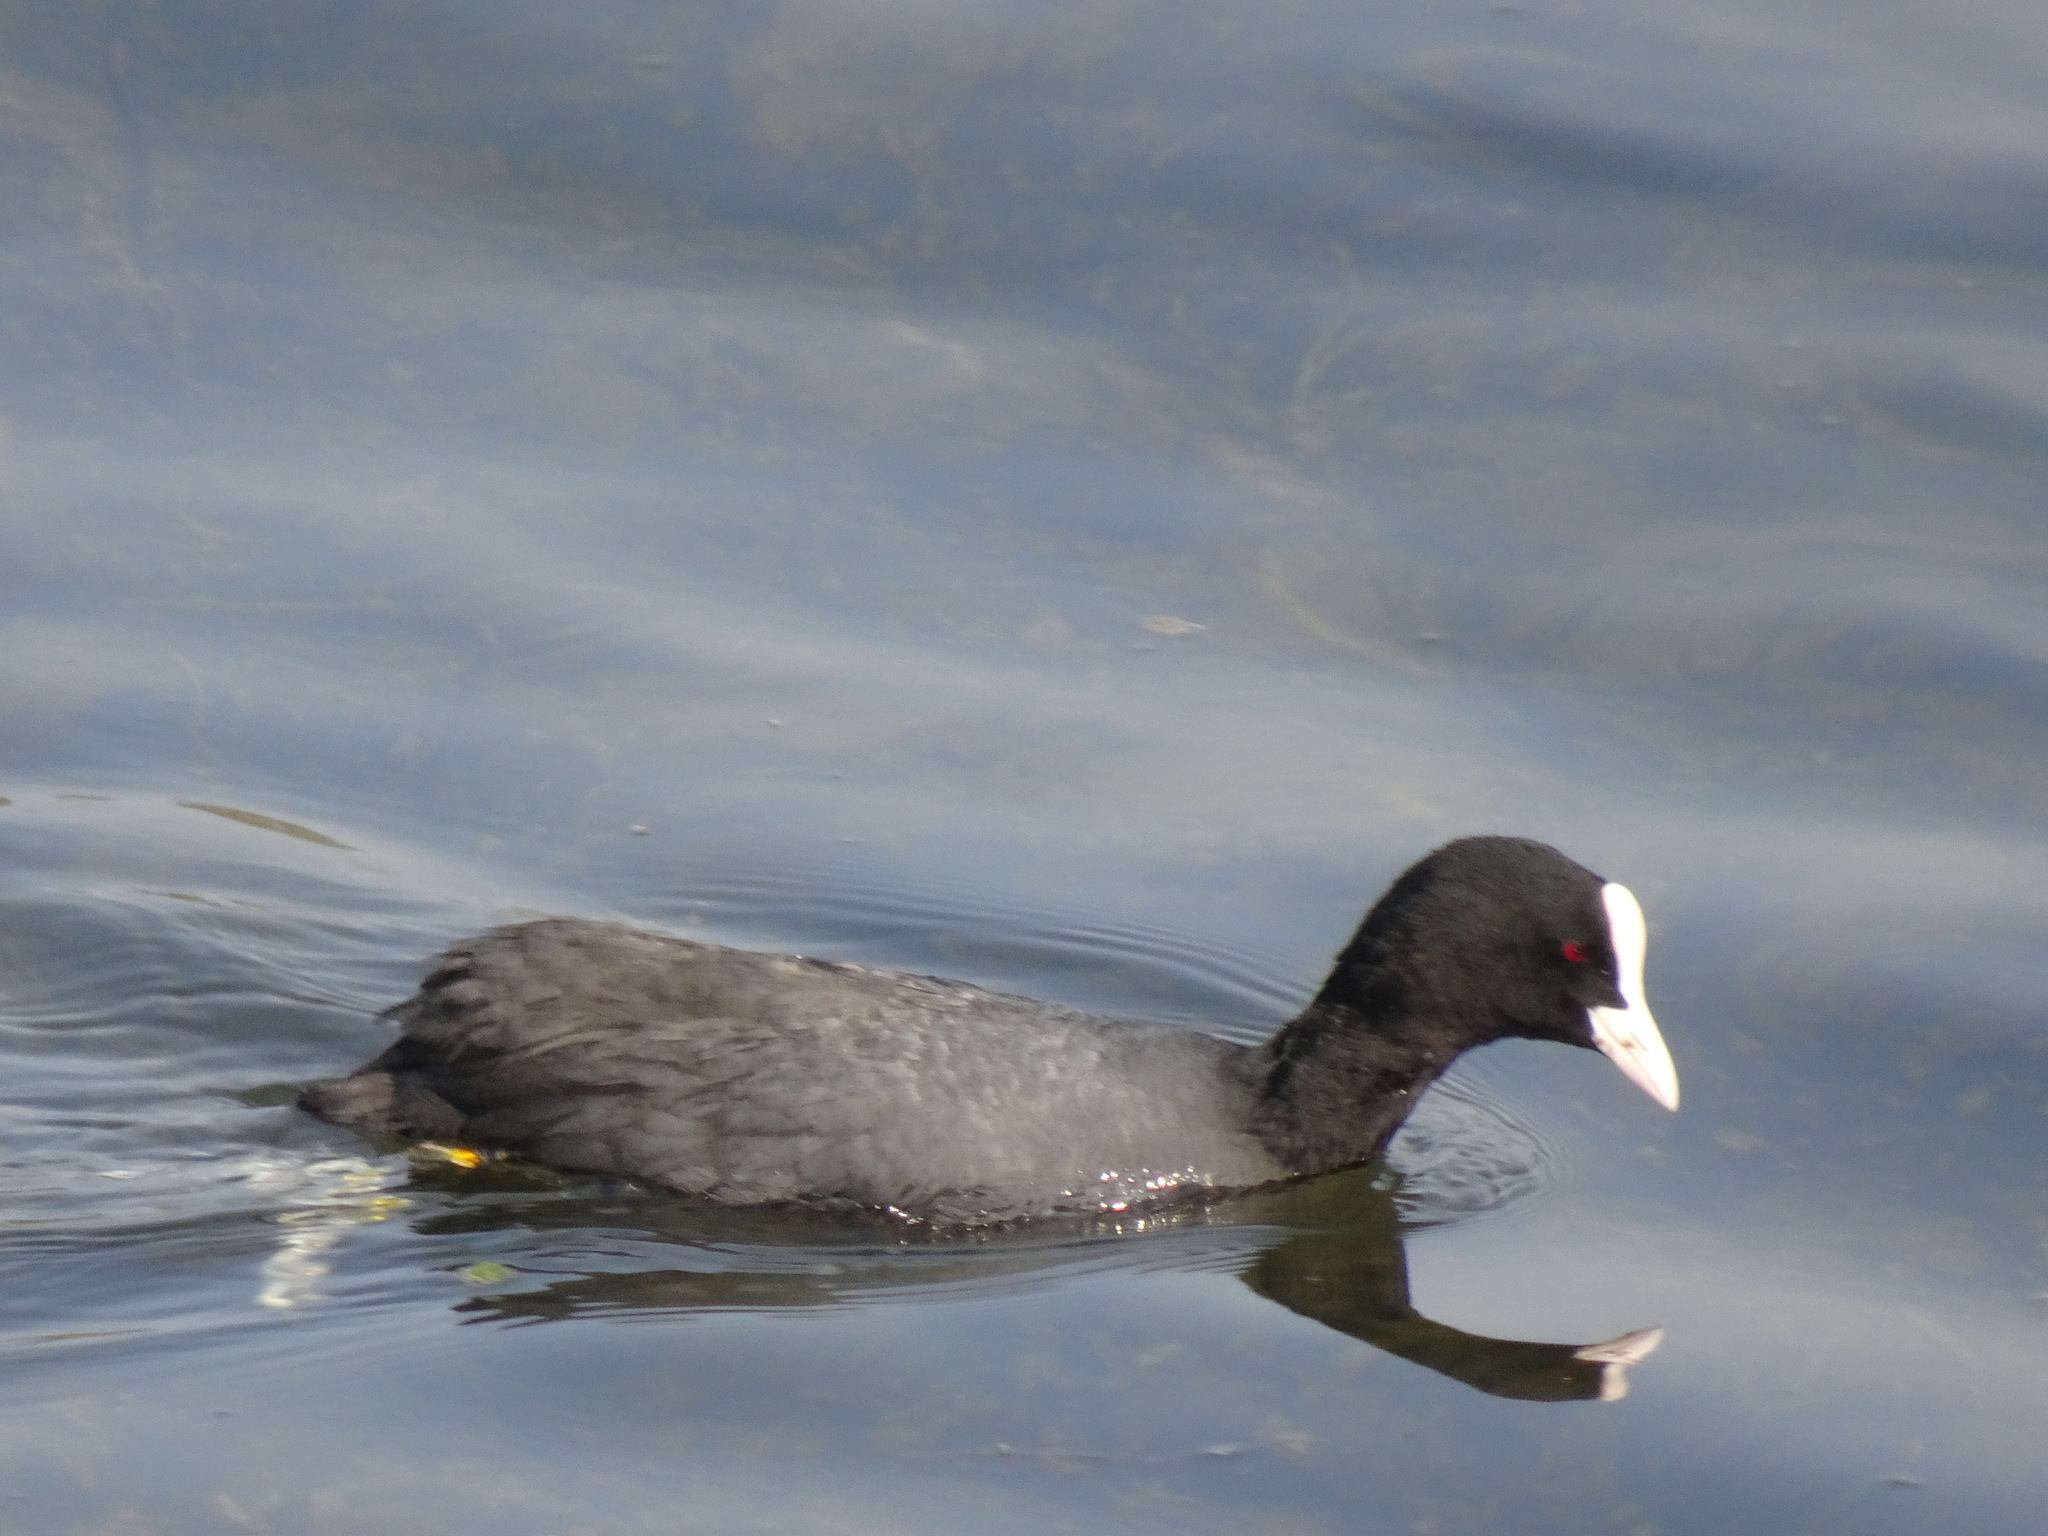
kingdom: Animalia
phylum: Chordata
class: Aves
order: Gruiformes
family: Rallidae
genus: Fulica
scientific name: Fulica atra
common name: Eurasian coot
